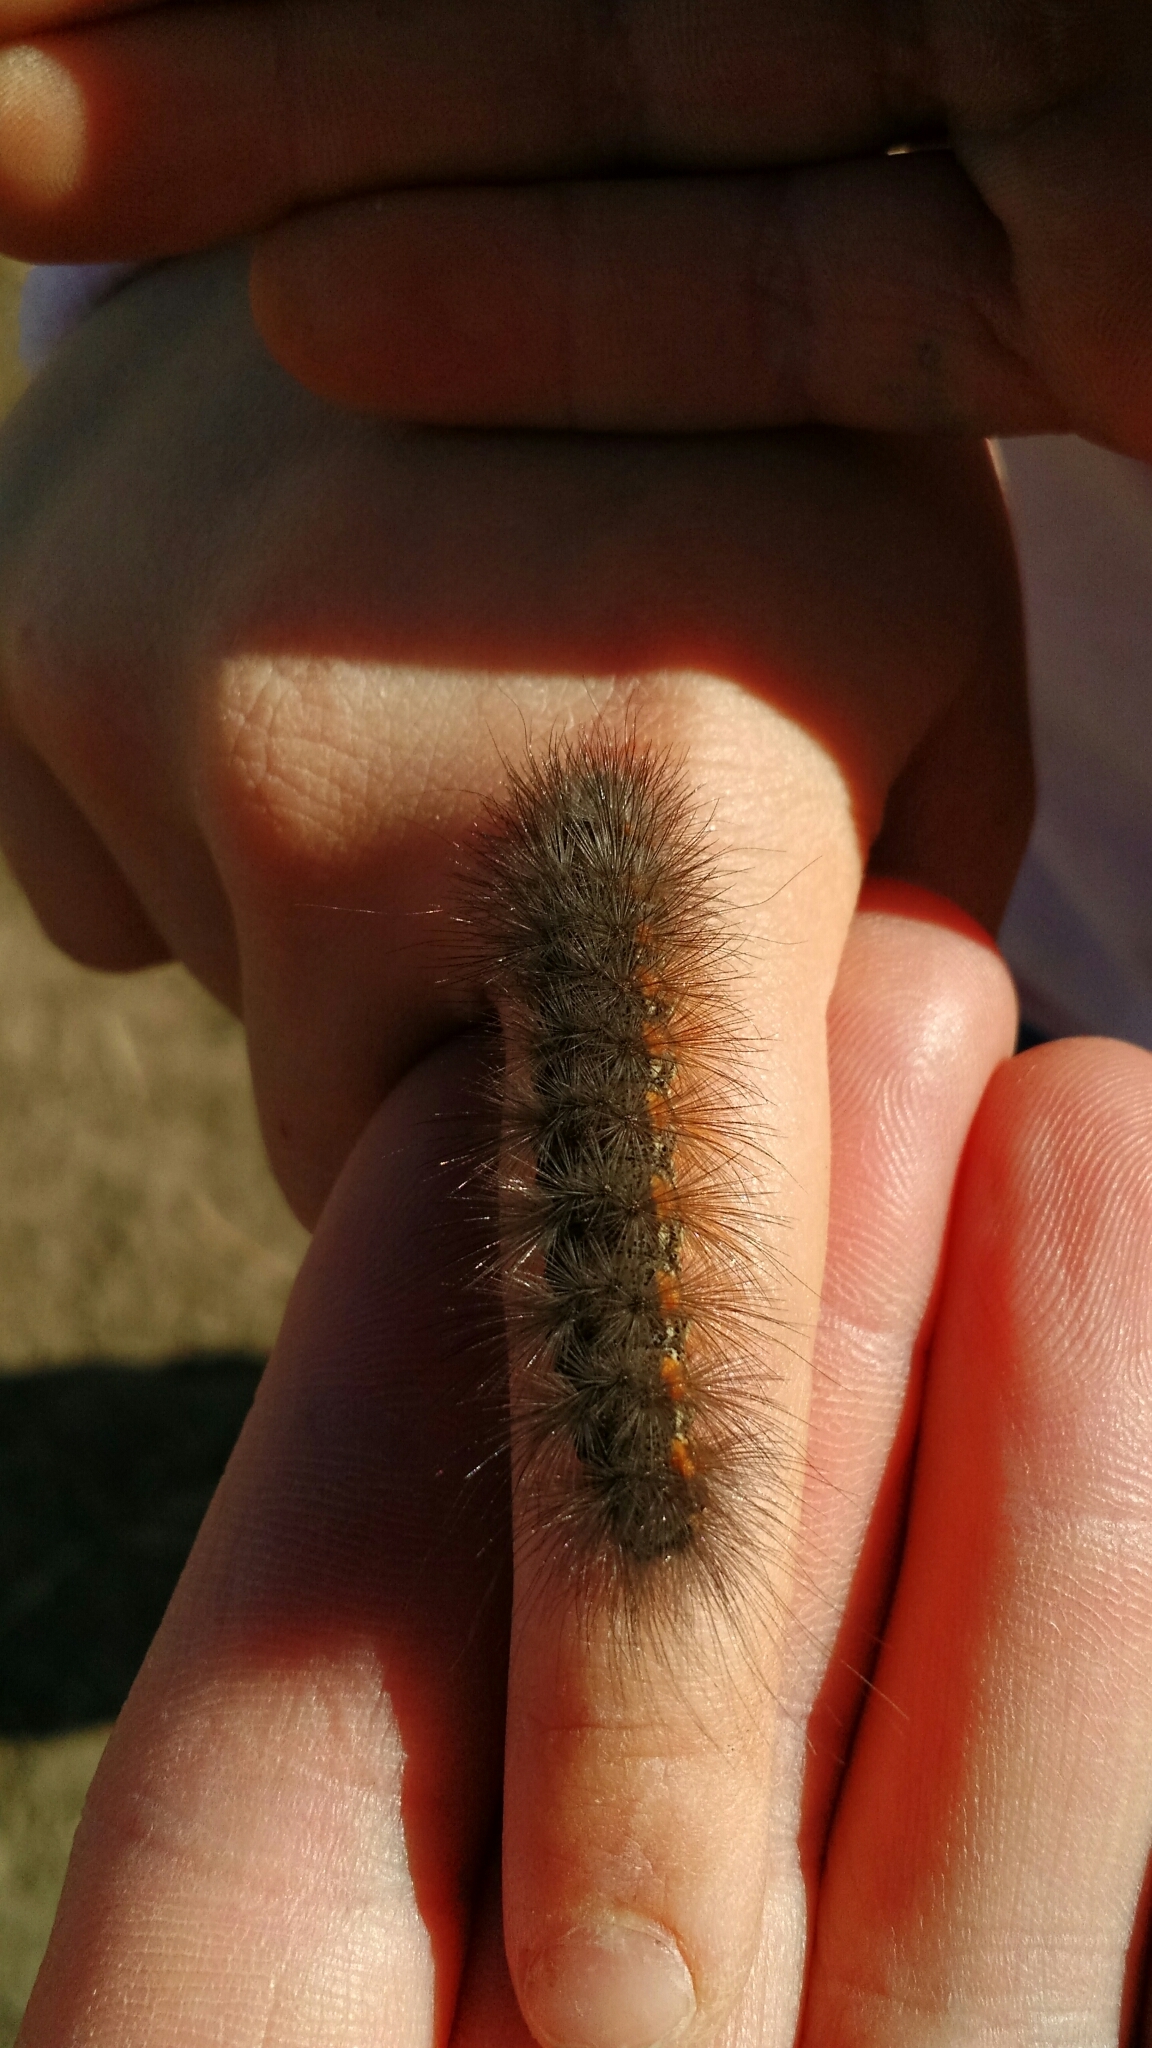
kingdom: Animalia
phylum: Arthropoda
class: Insecta
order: Lepidoptera
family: Erebidae
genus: Estigmene
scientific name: Estigmene acrea
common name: Salt marsh moth
